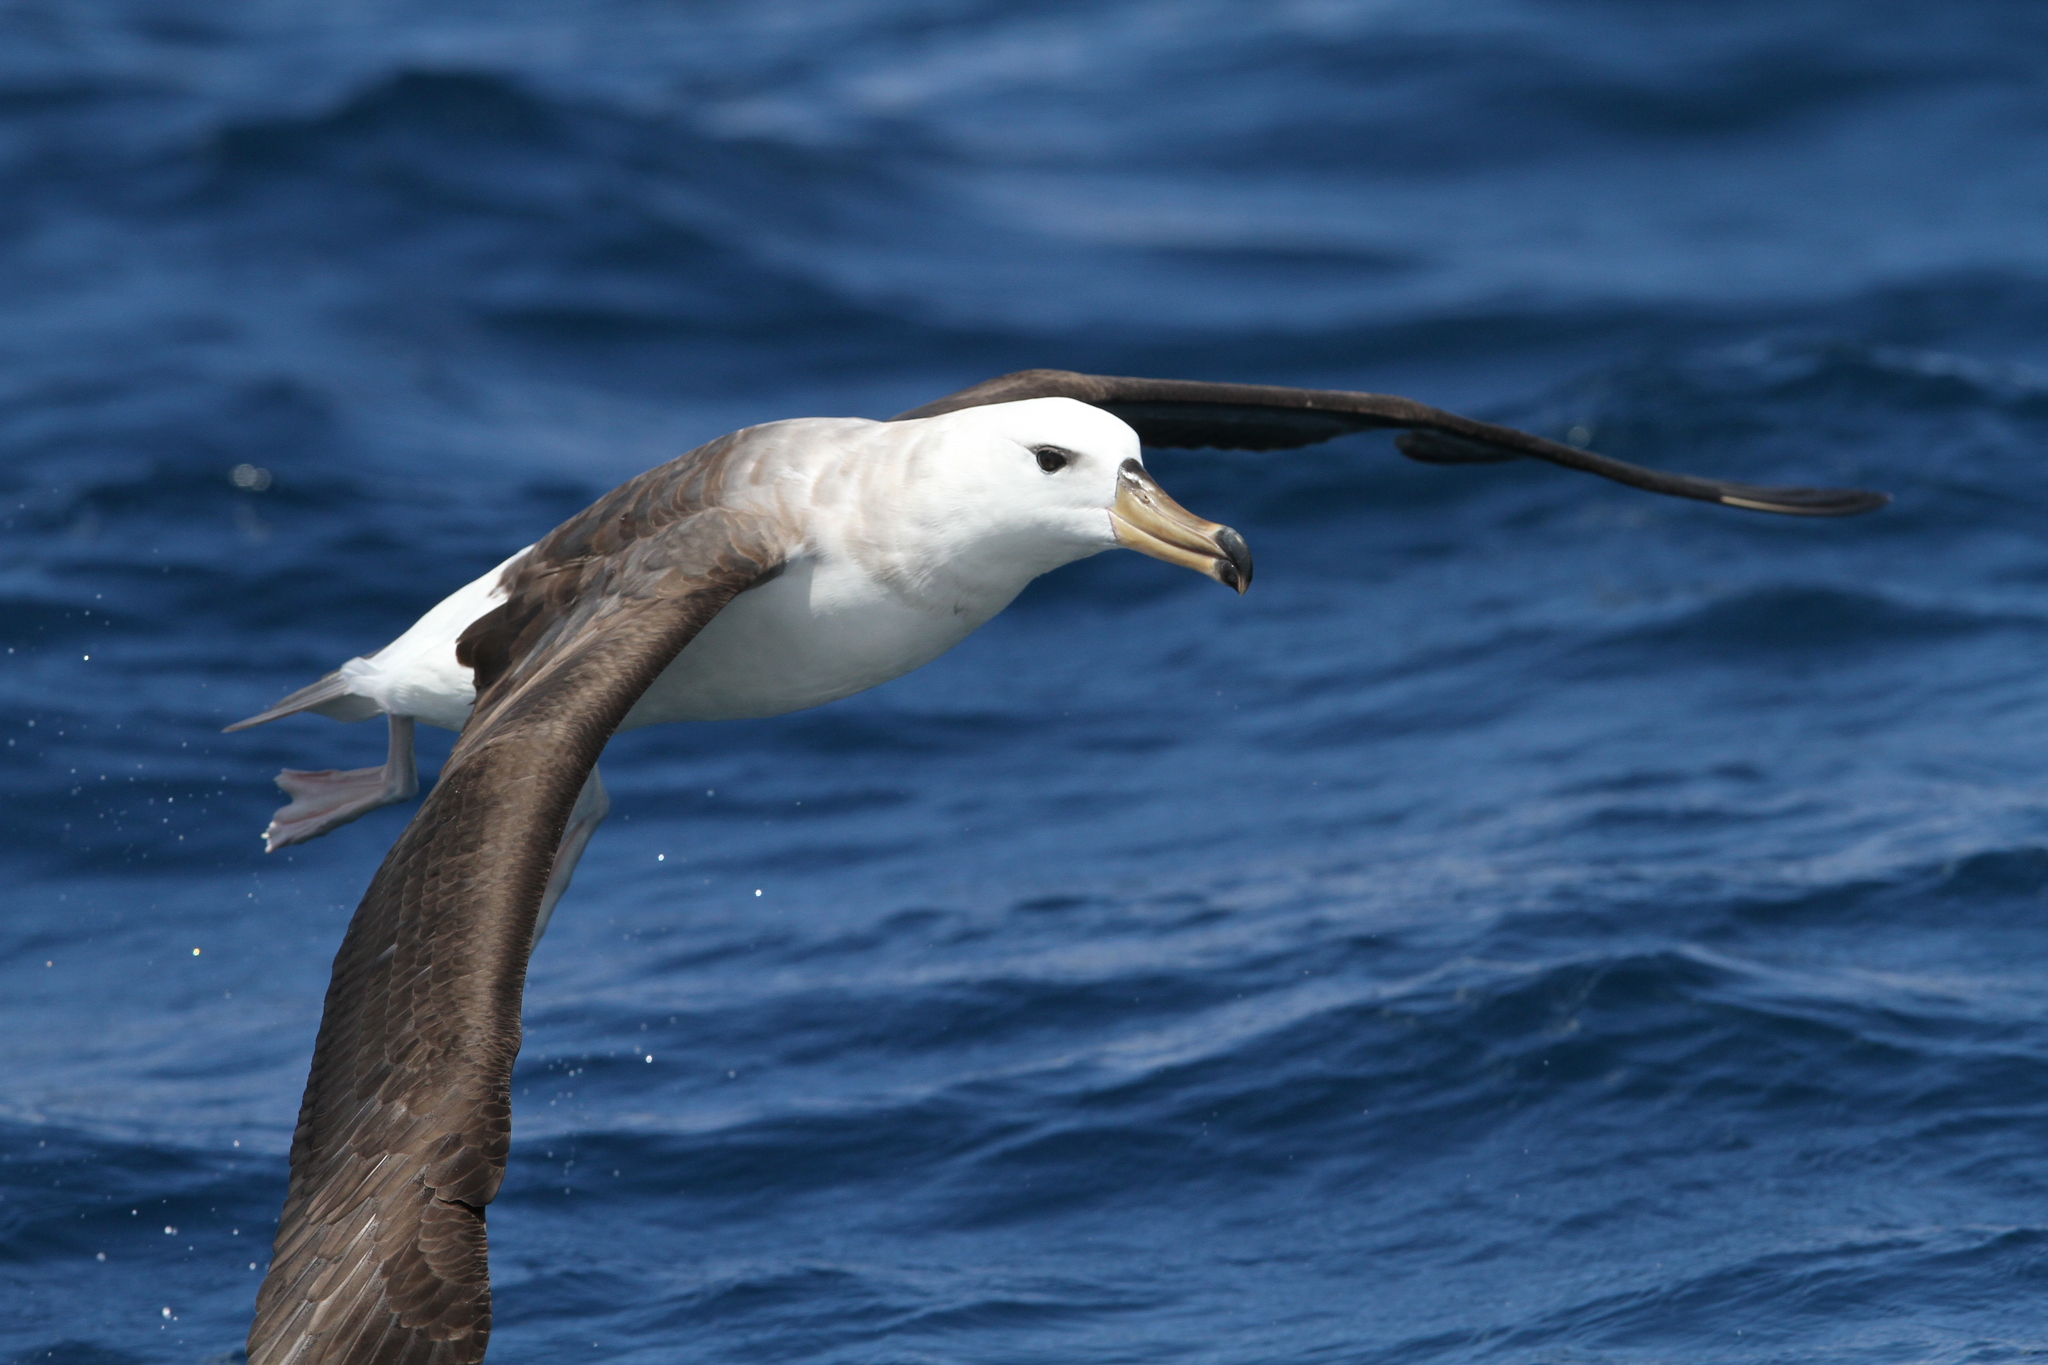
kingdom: Animalia
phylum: Chordata
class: Aves
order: Procellariiformes
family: Diomedeidae
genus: Thalassarche
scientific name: Thalassarche melanophris
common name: Black-browed albatross
